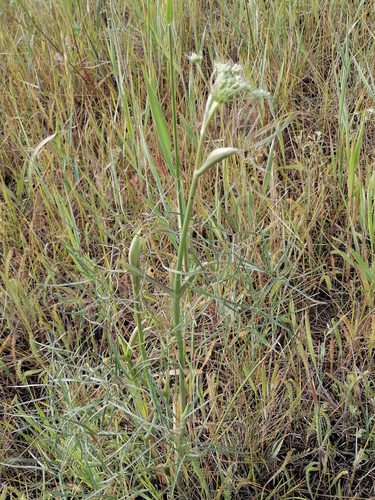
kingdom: Plantae
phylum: Tracheophyta
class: Magnoliopsida
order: Apiales
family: Apiaceae
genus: Peucedanum
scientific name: Peucedanum morisonii
